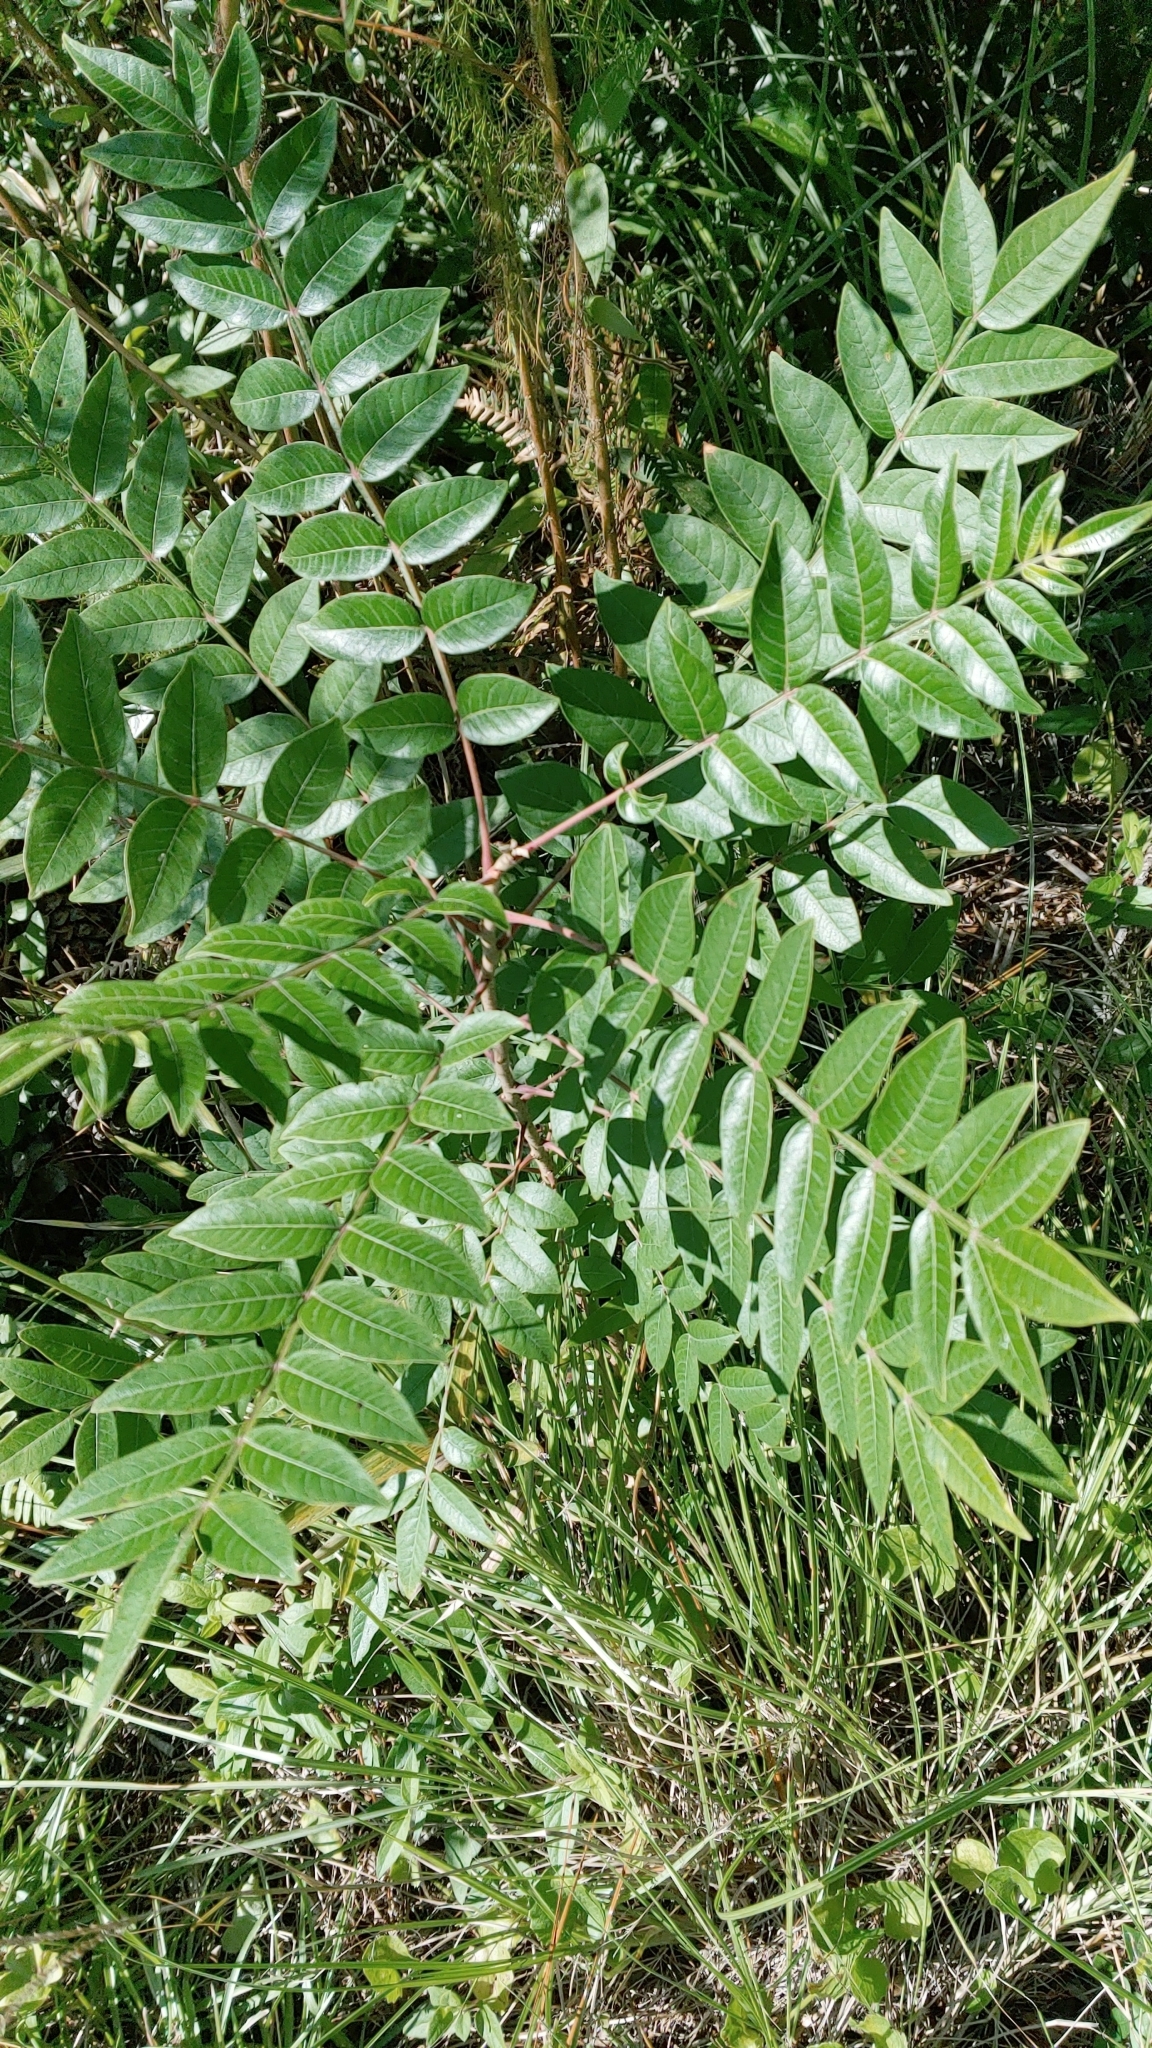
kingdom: Plantae
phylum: Tracheophyta
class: Magnoliopsida
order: Sapindales
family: Anacardiaceae
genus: Rhus
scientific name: Rhus copallina
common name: Shining sumac
